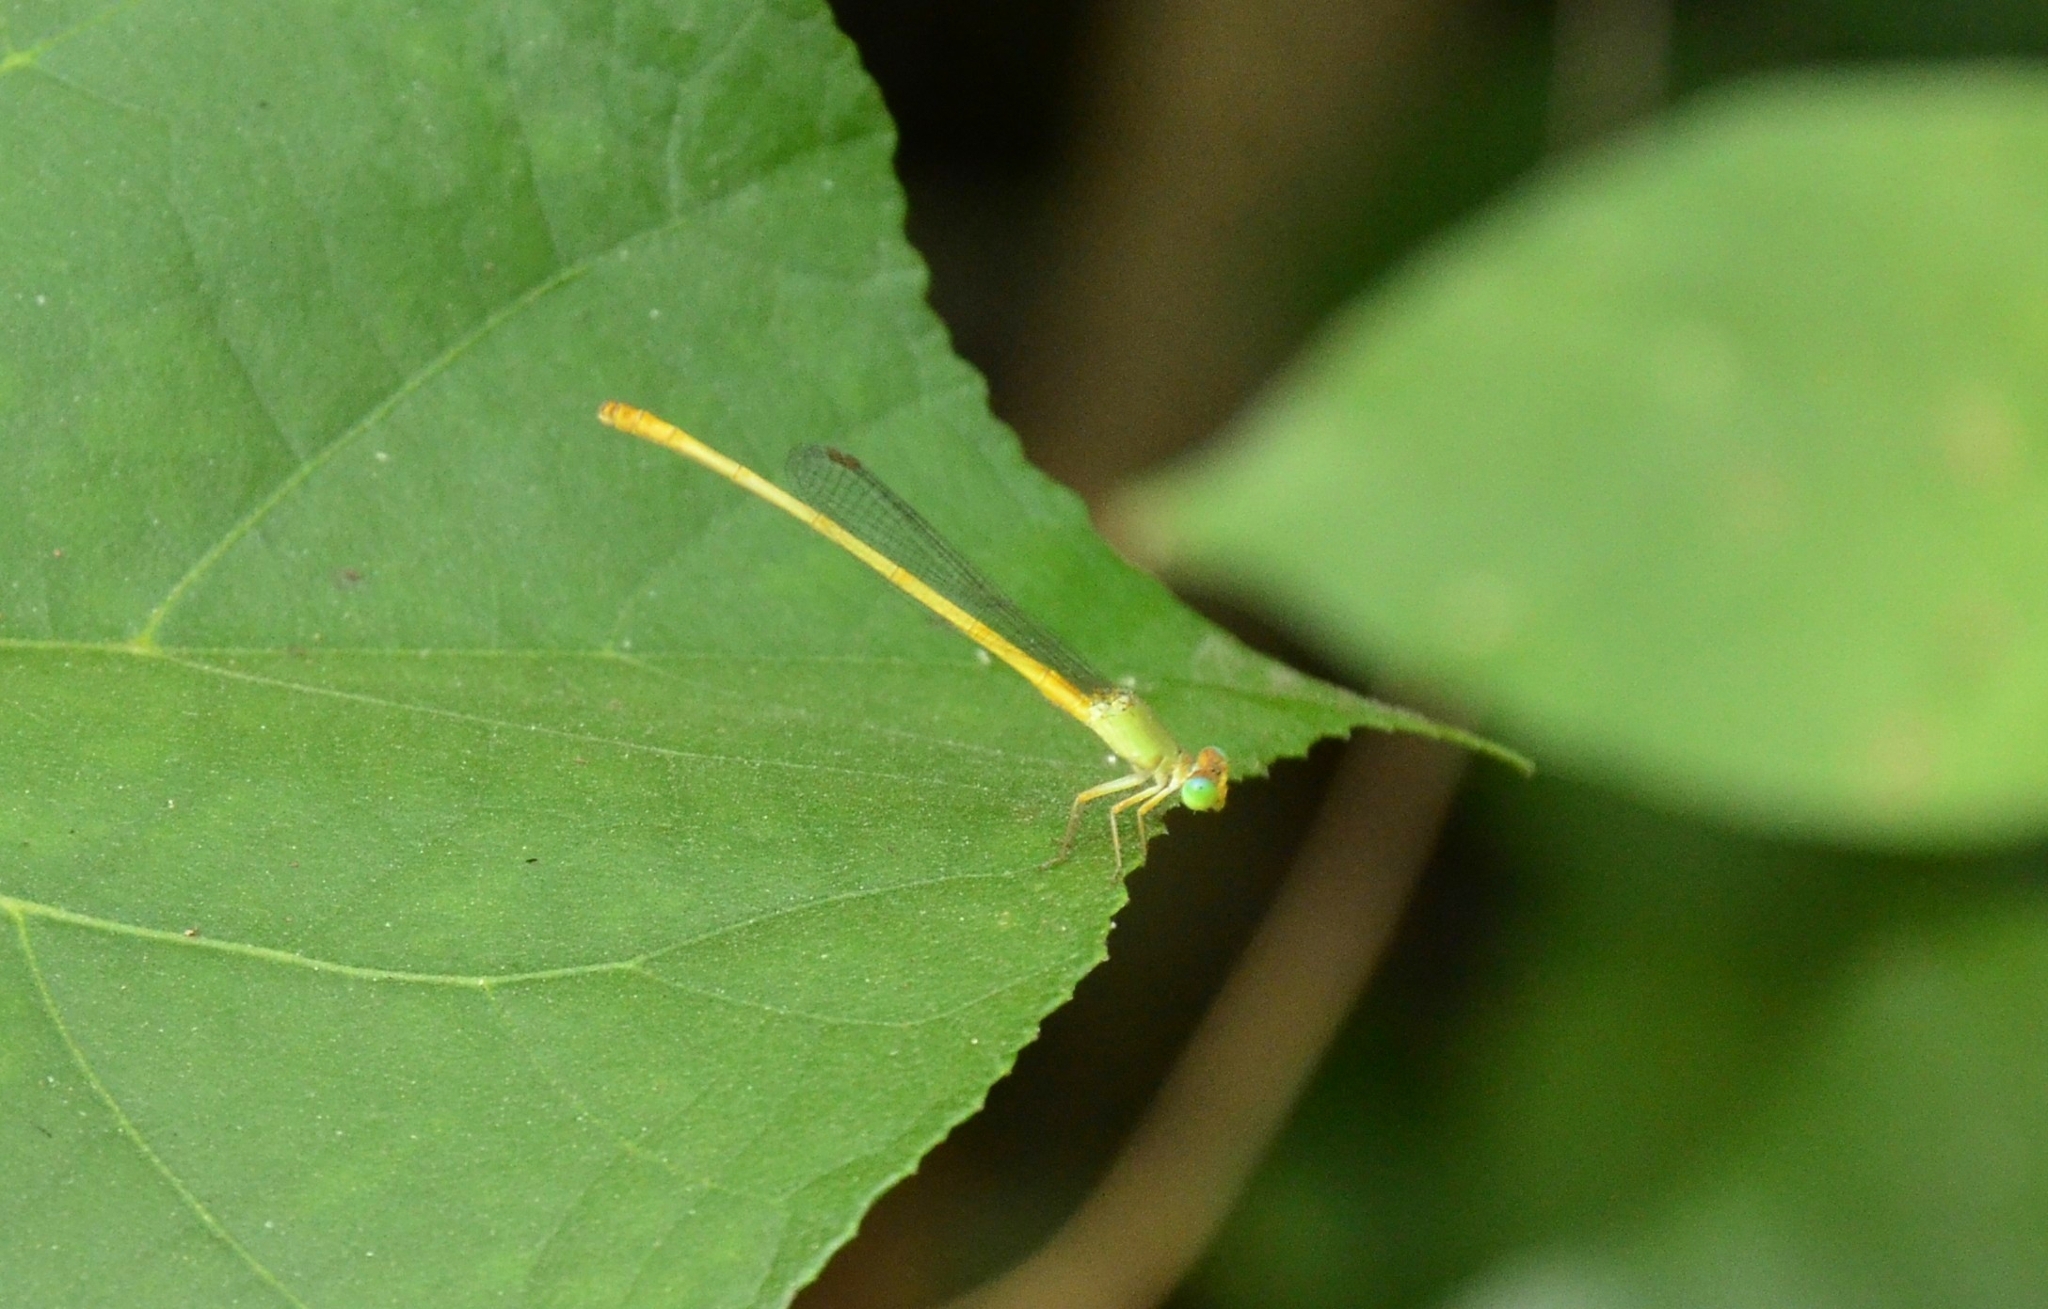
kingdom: Animalia
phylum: Arthropoda
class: Insecta
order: Odonata
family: Coenagrionidae
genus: Ceriagrion
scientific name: Ceriagrion coromandelianum
